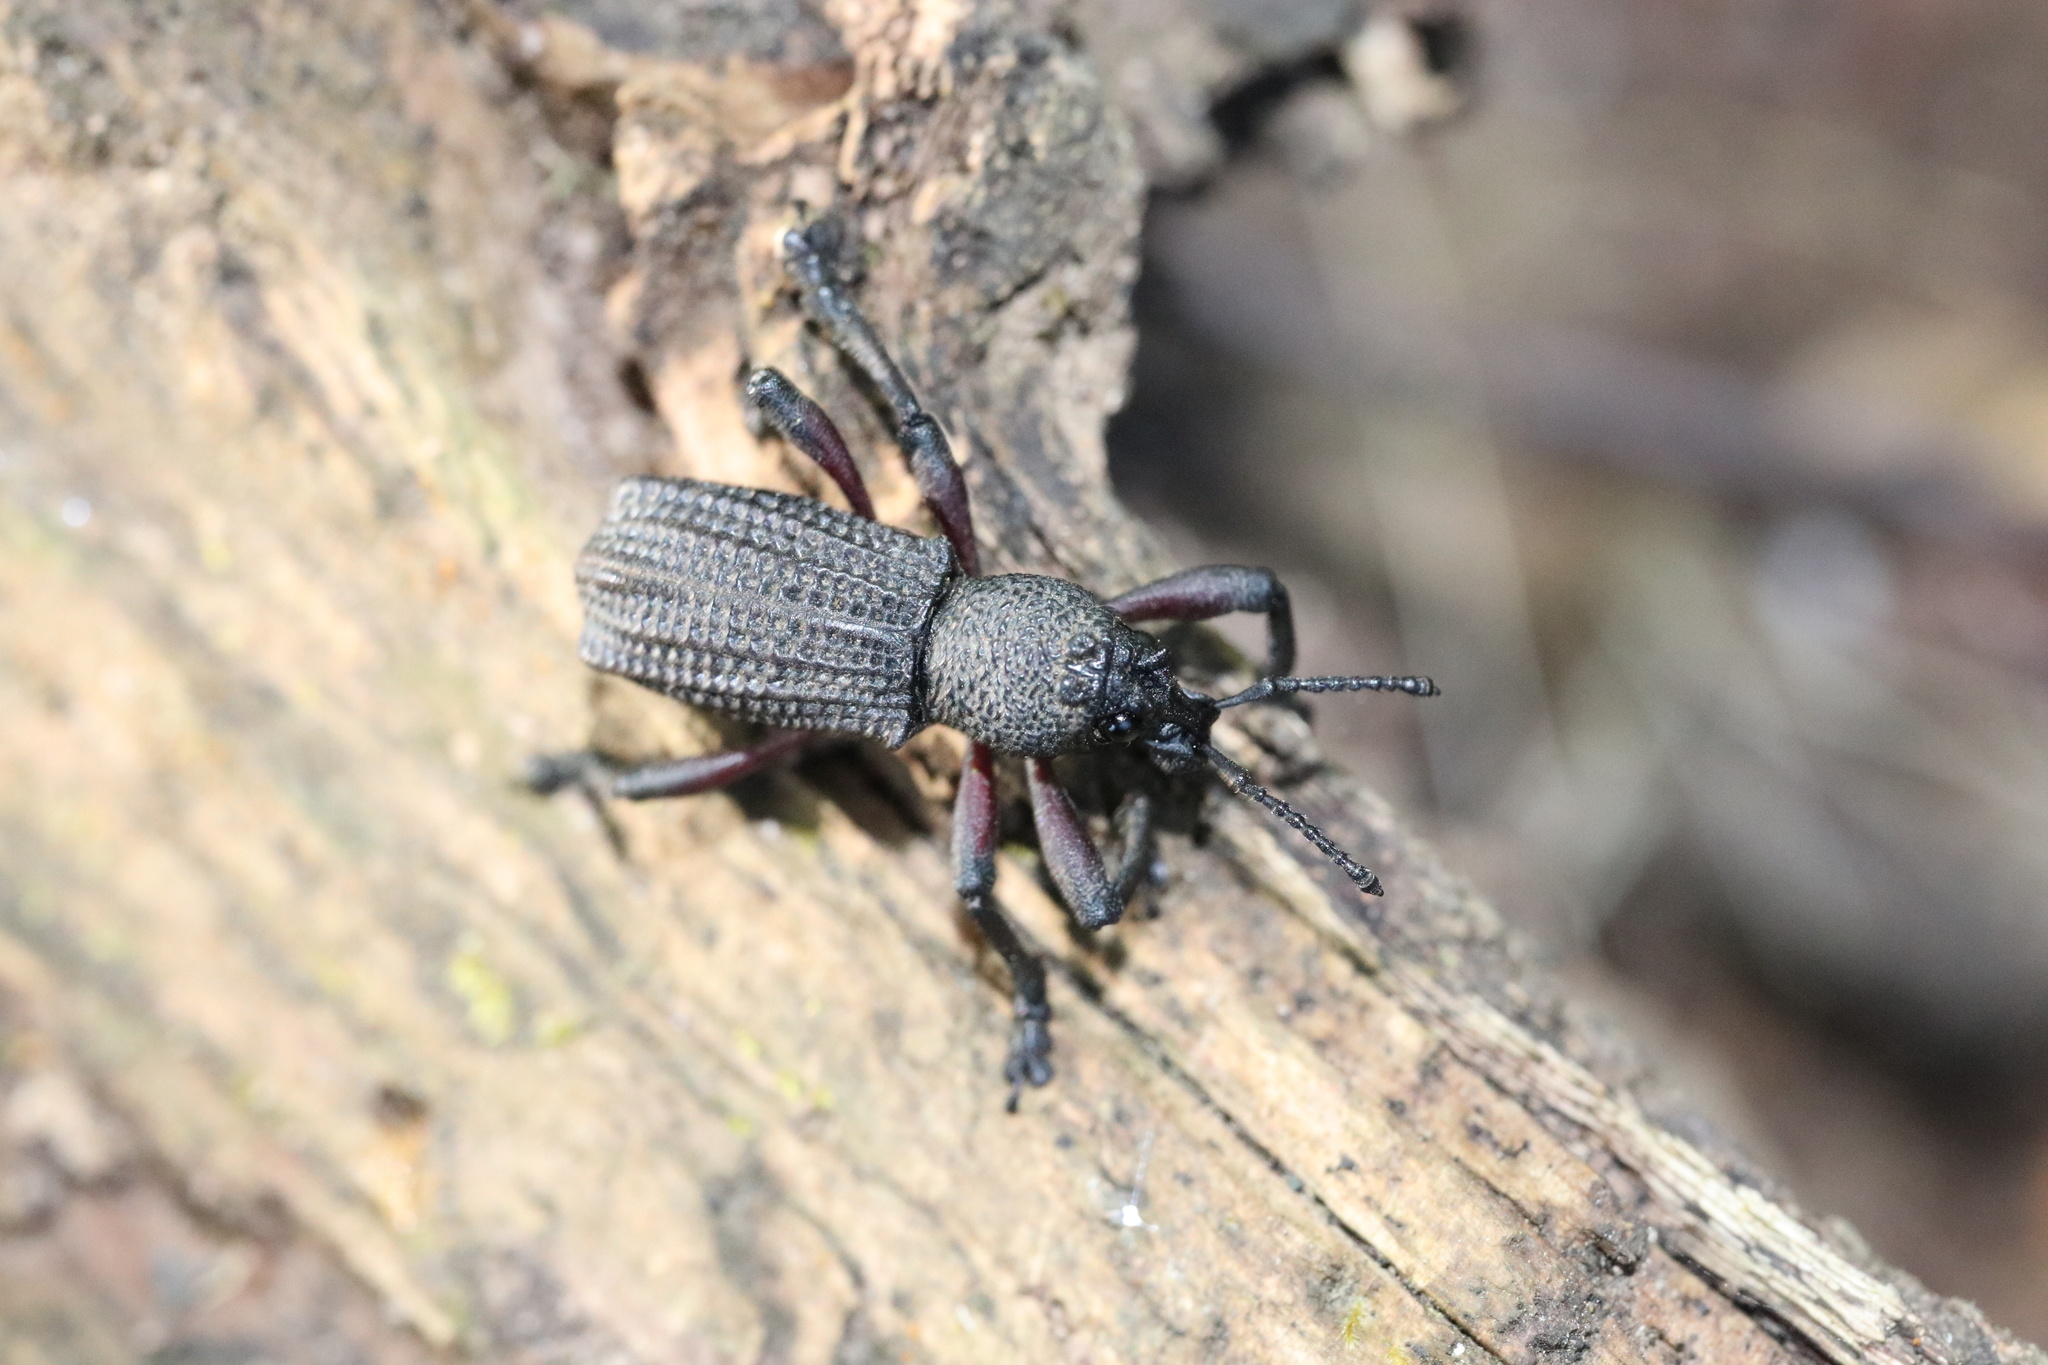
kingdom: Animalia
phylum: Arthropoda
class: Insecta
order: Coleoptera
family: Curculionidae
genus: Aegorhinus
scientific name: Aegorhinus
